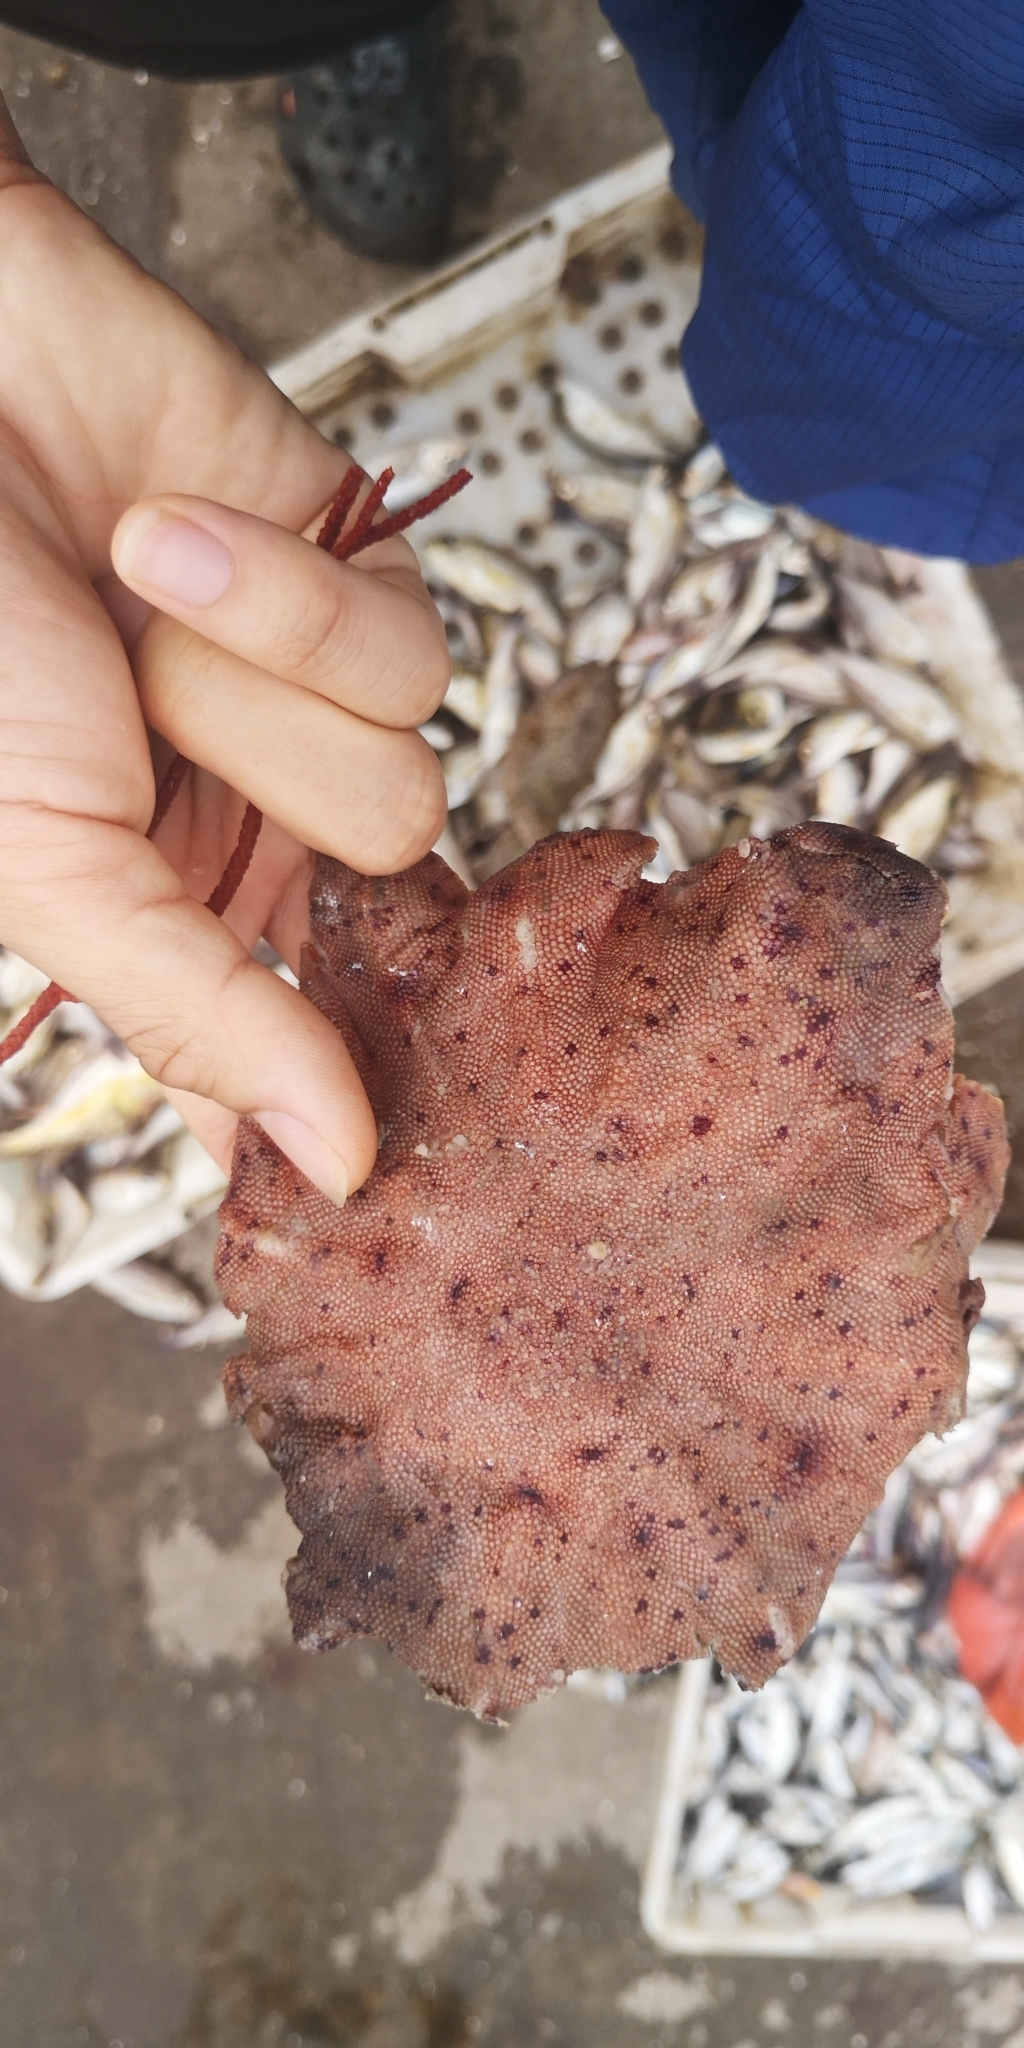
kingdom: Animalia
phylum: Echinodermata
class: Asteroidea
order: Valvatida
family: Anseropodidae
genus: Anseropoda
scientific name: Anseropoda rosacea
